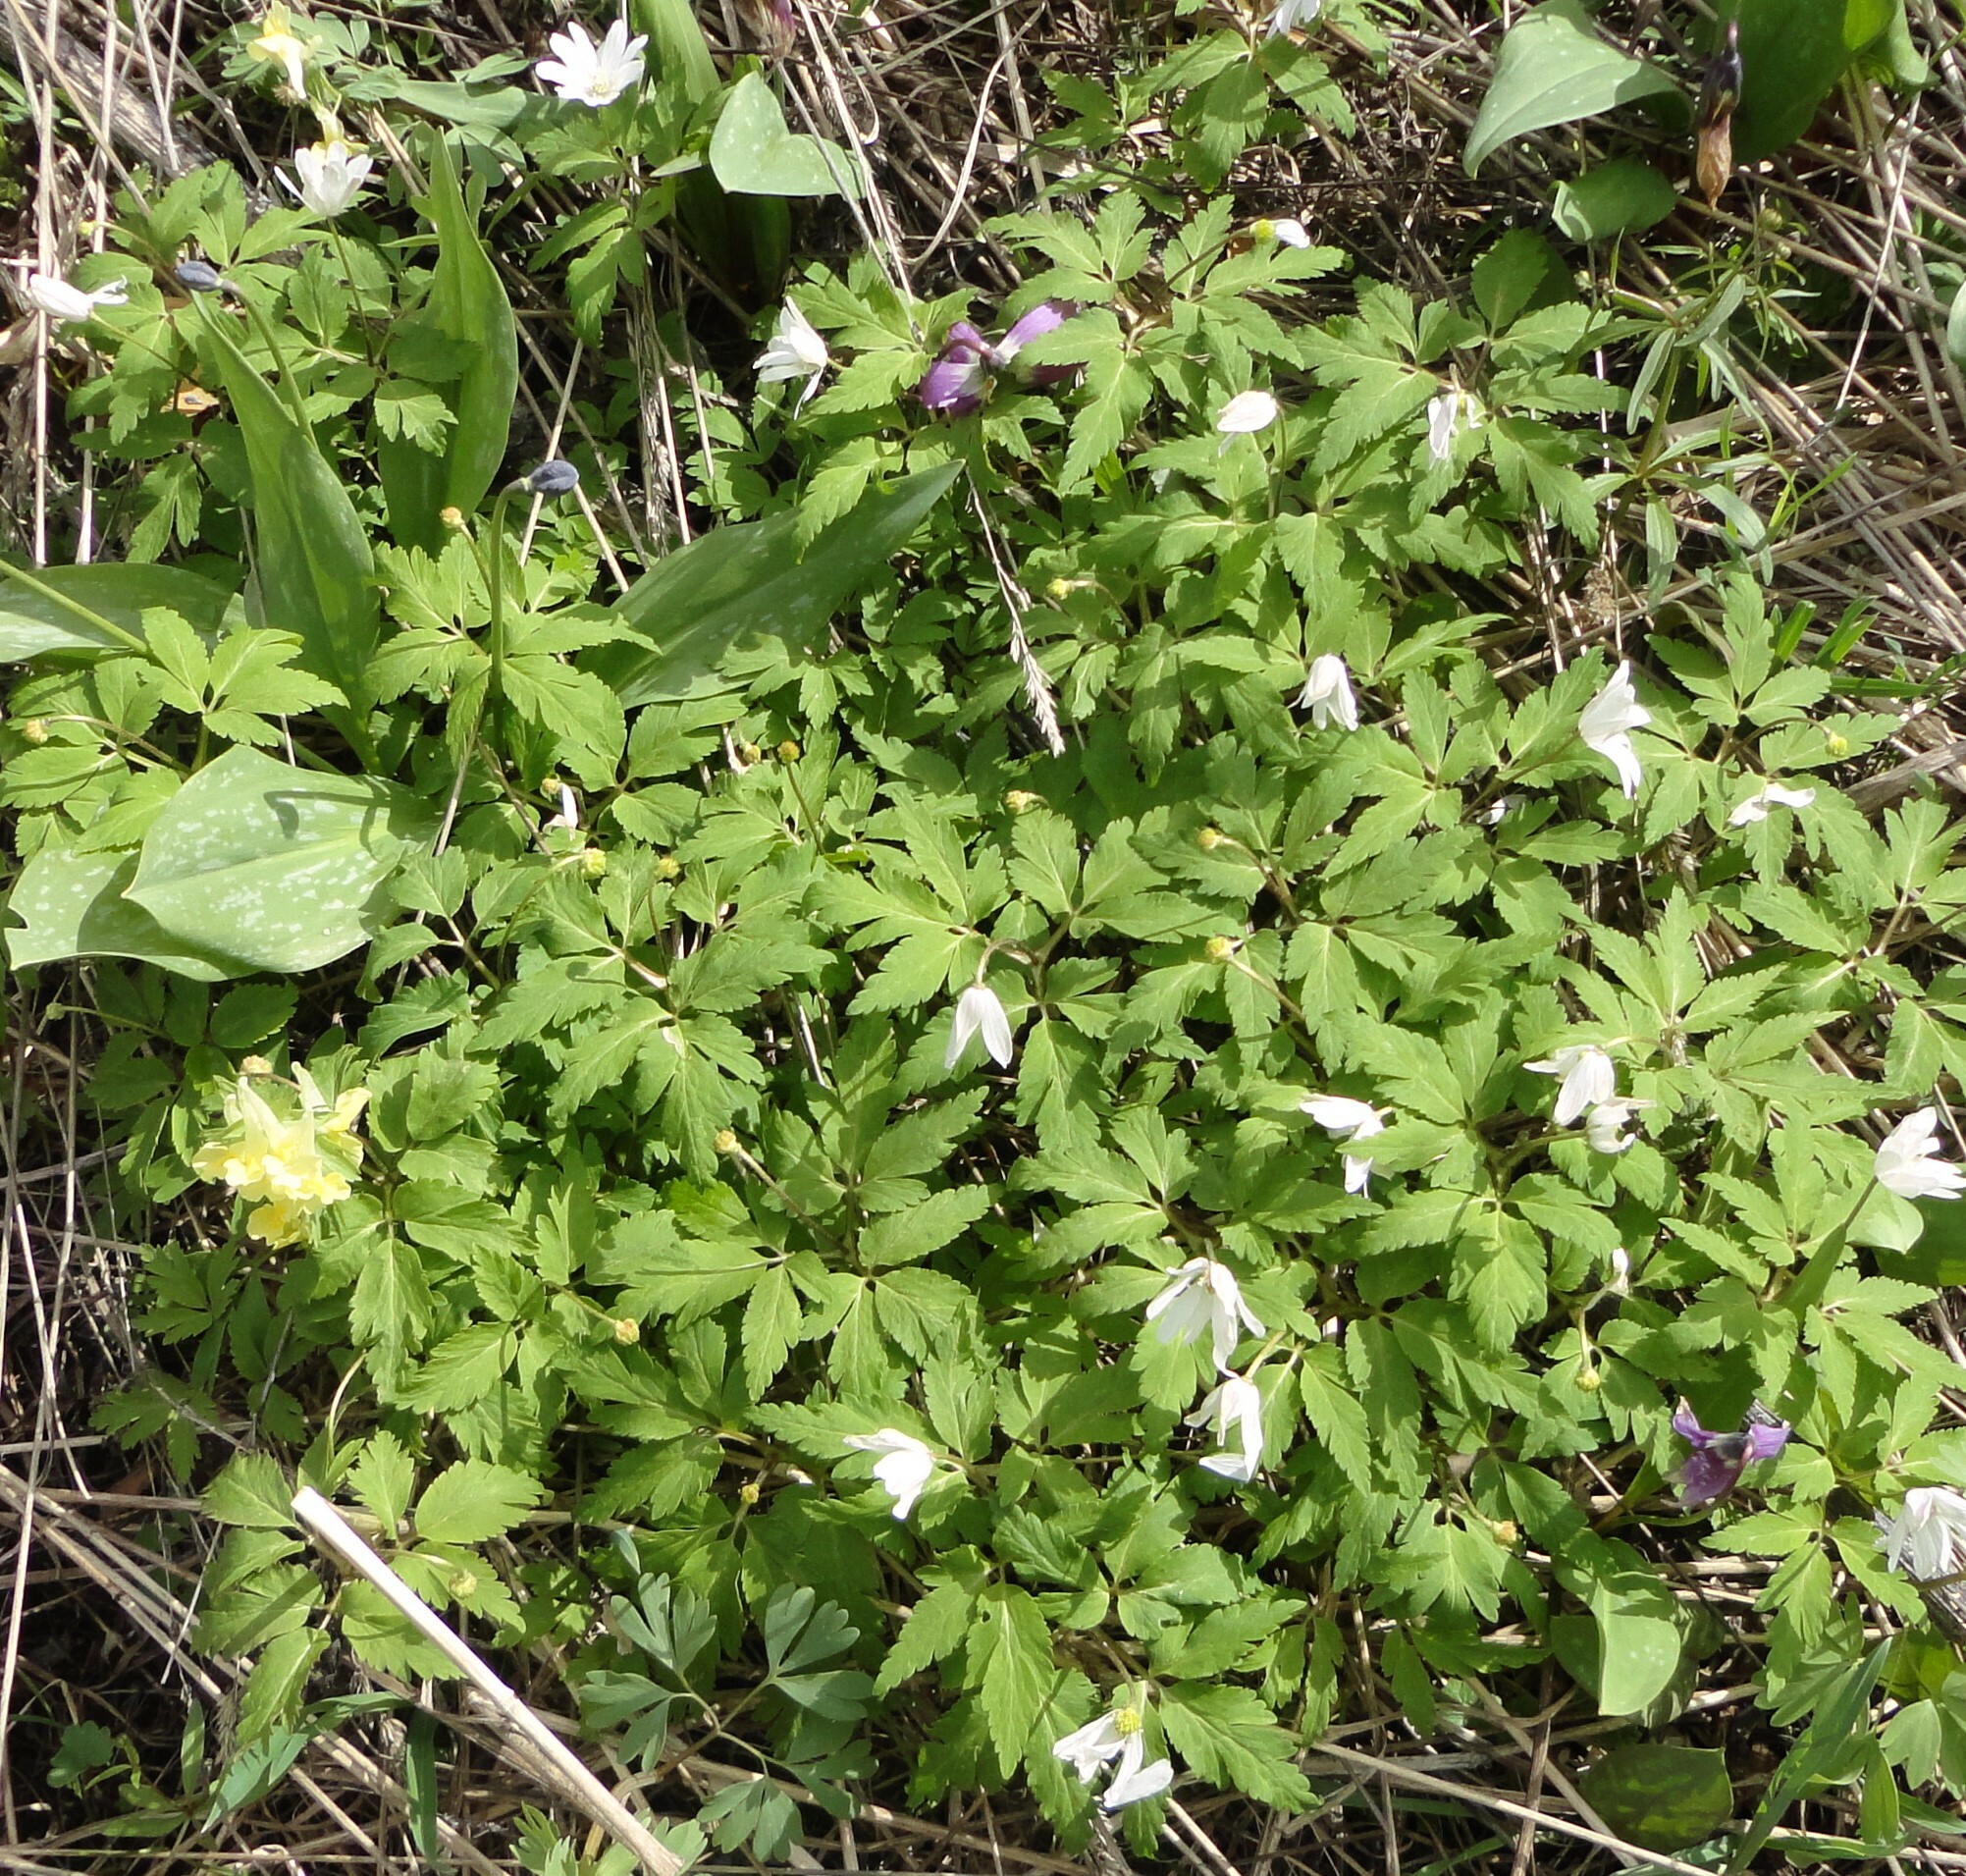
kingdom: Plantae
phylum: Tracheophyta
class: Magnoliopsida
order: Ranunculales
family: Ranunculaceae
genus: Anemone
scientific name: Anemone altaica
